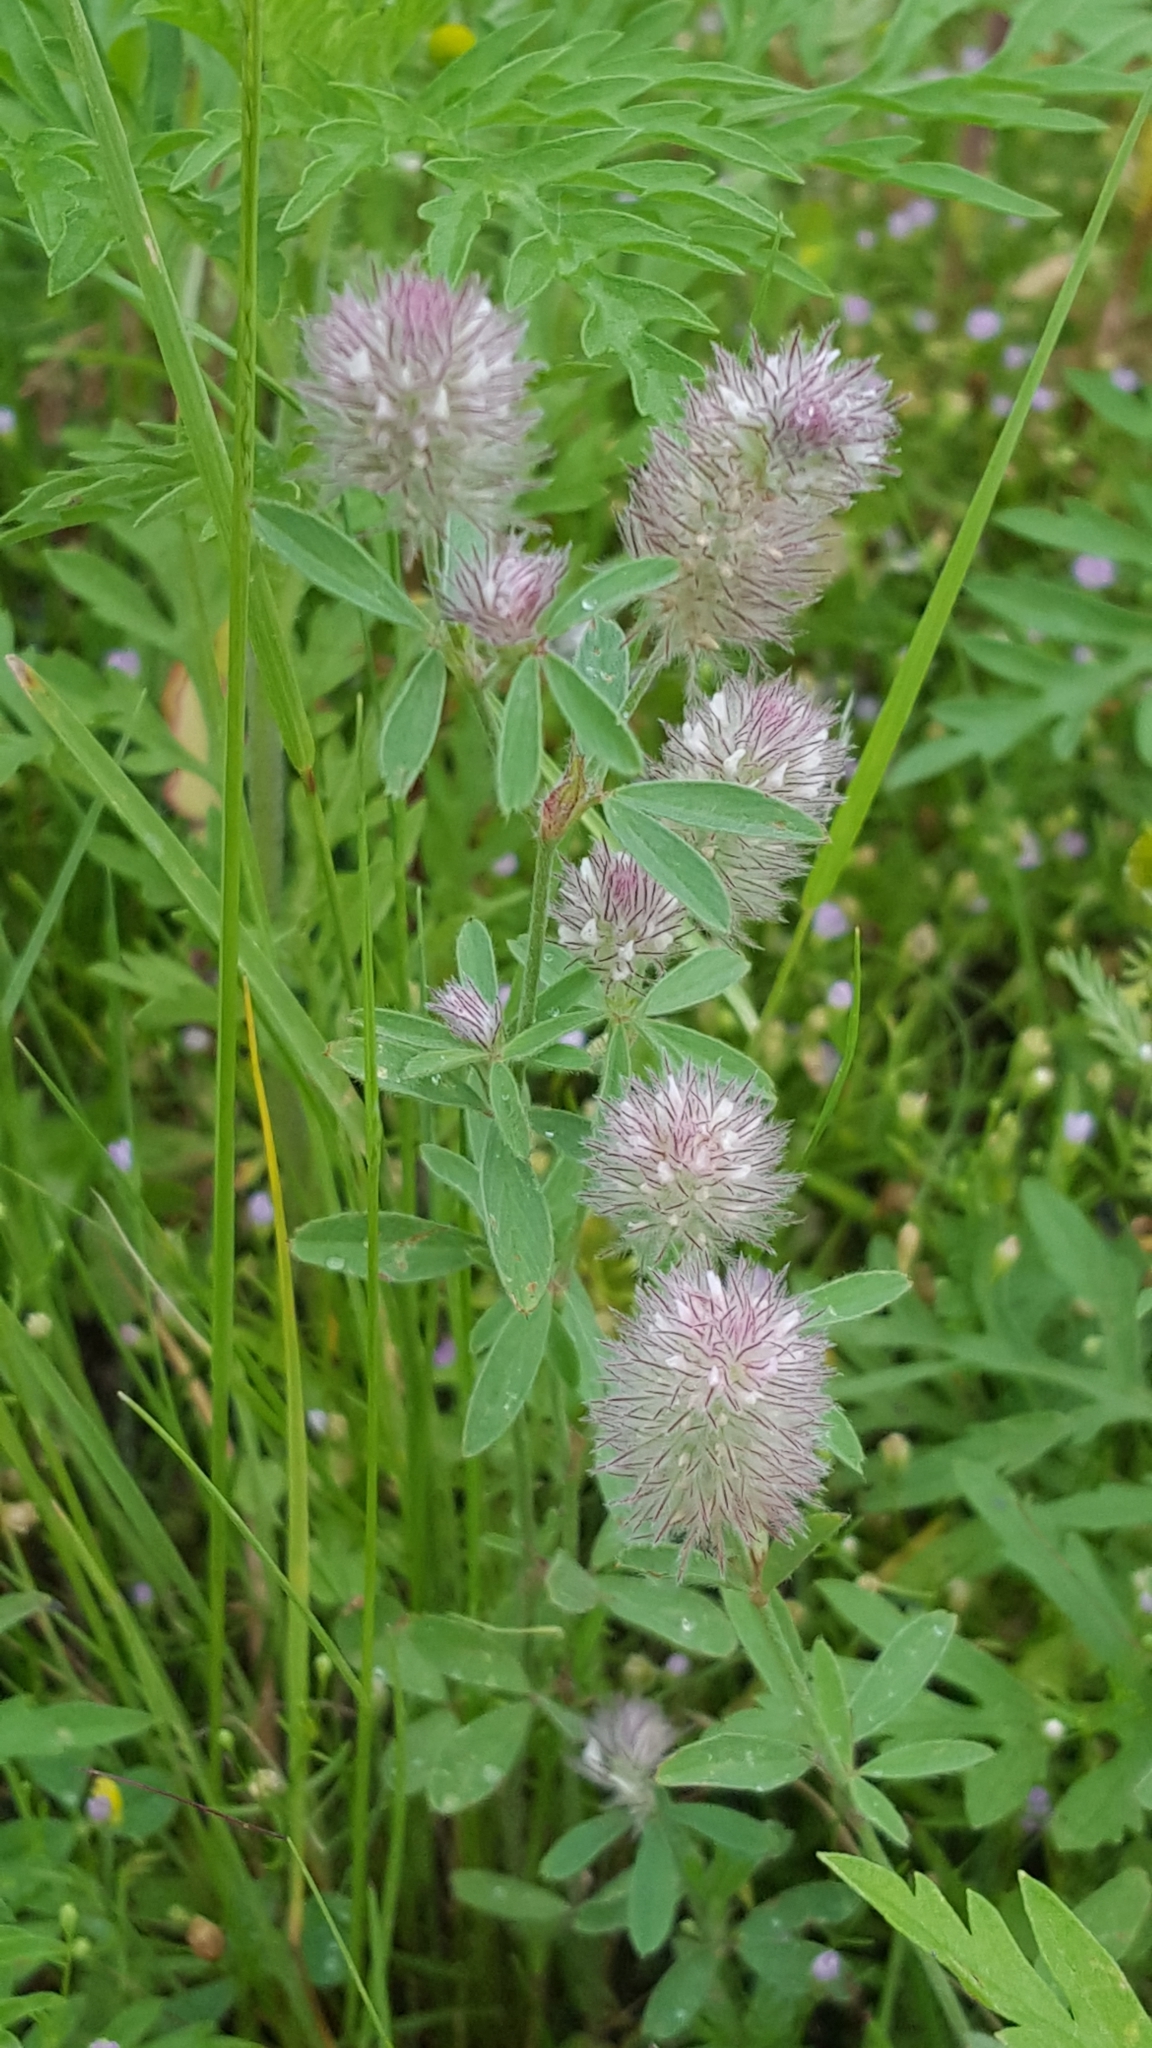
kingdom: Plantae
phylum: Tracheophyta
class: Magnoliopsida
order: Fabales
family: Fabaceae
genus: Trifolium
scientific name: Trifolium arvense
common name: Hare's-foot clover
